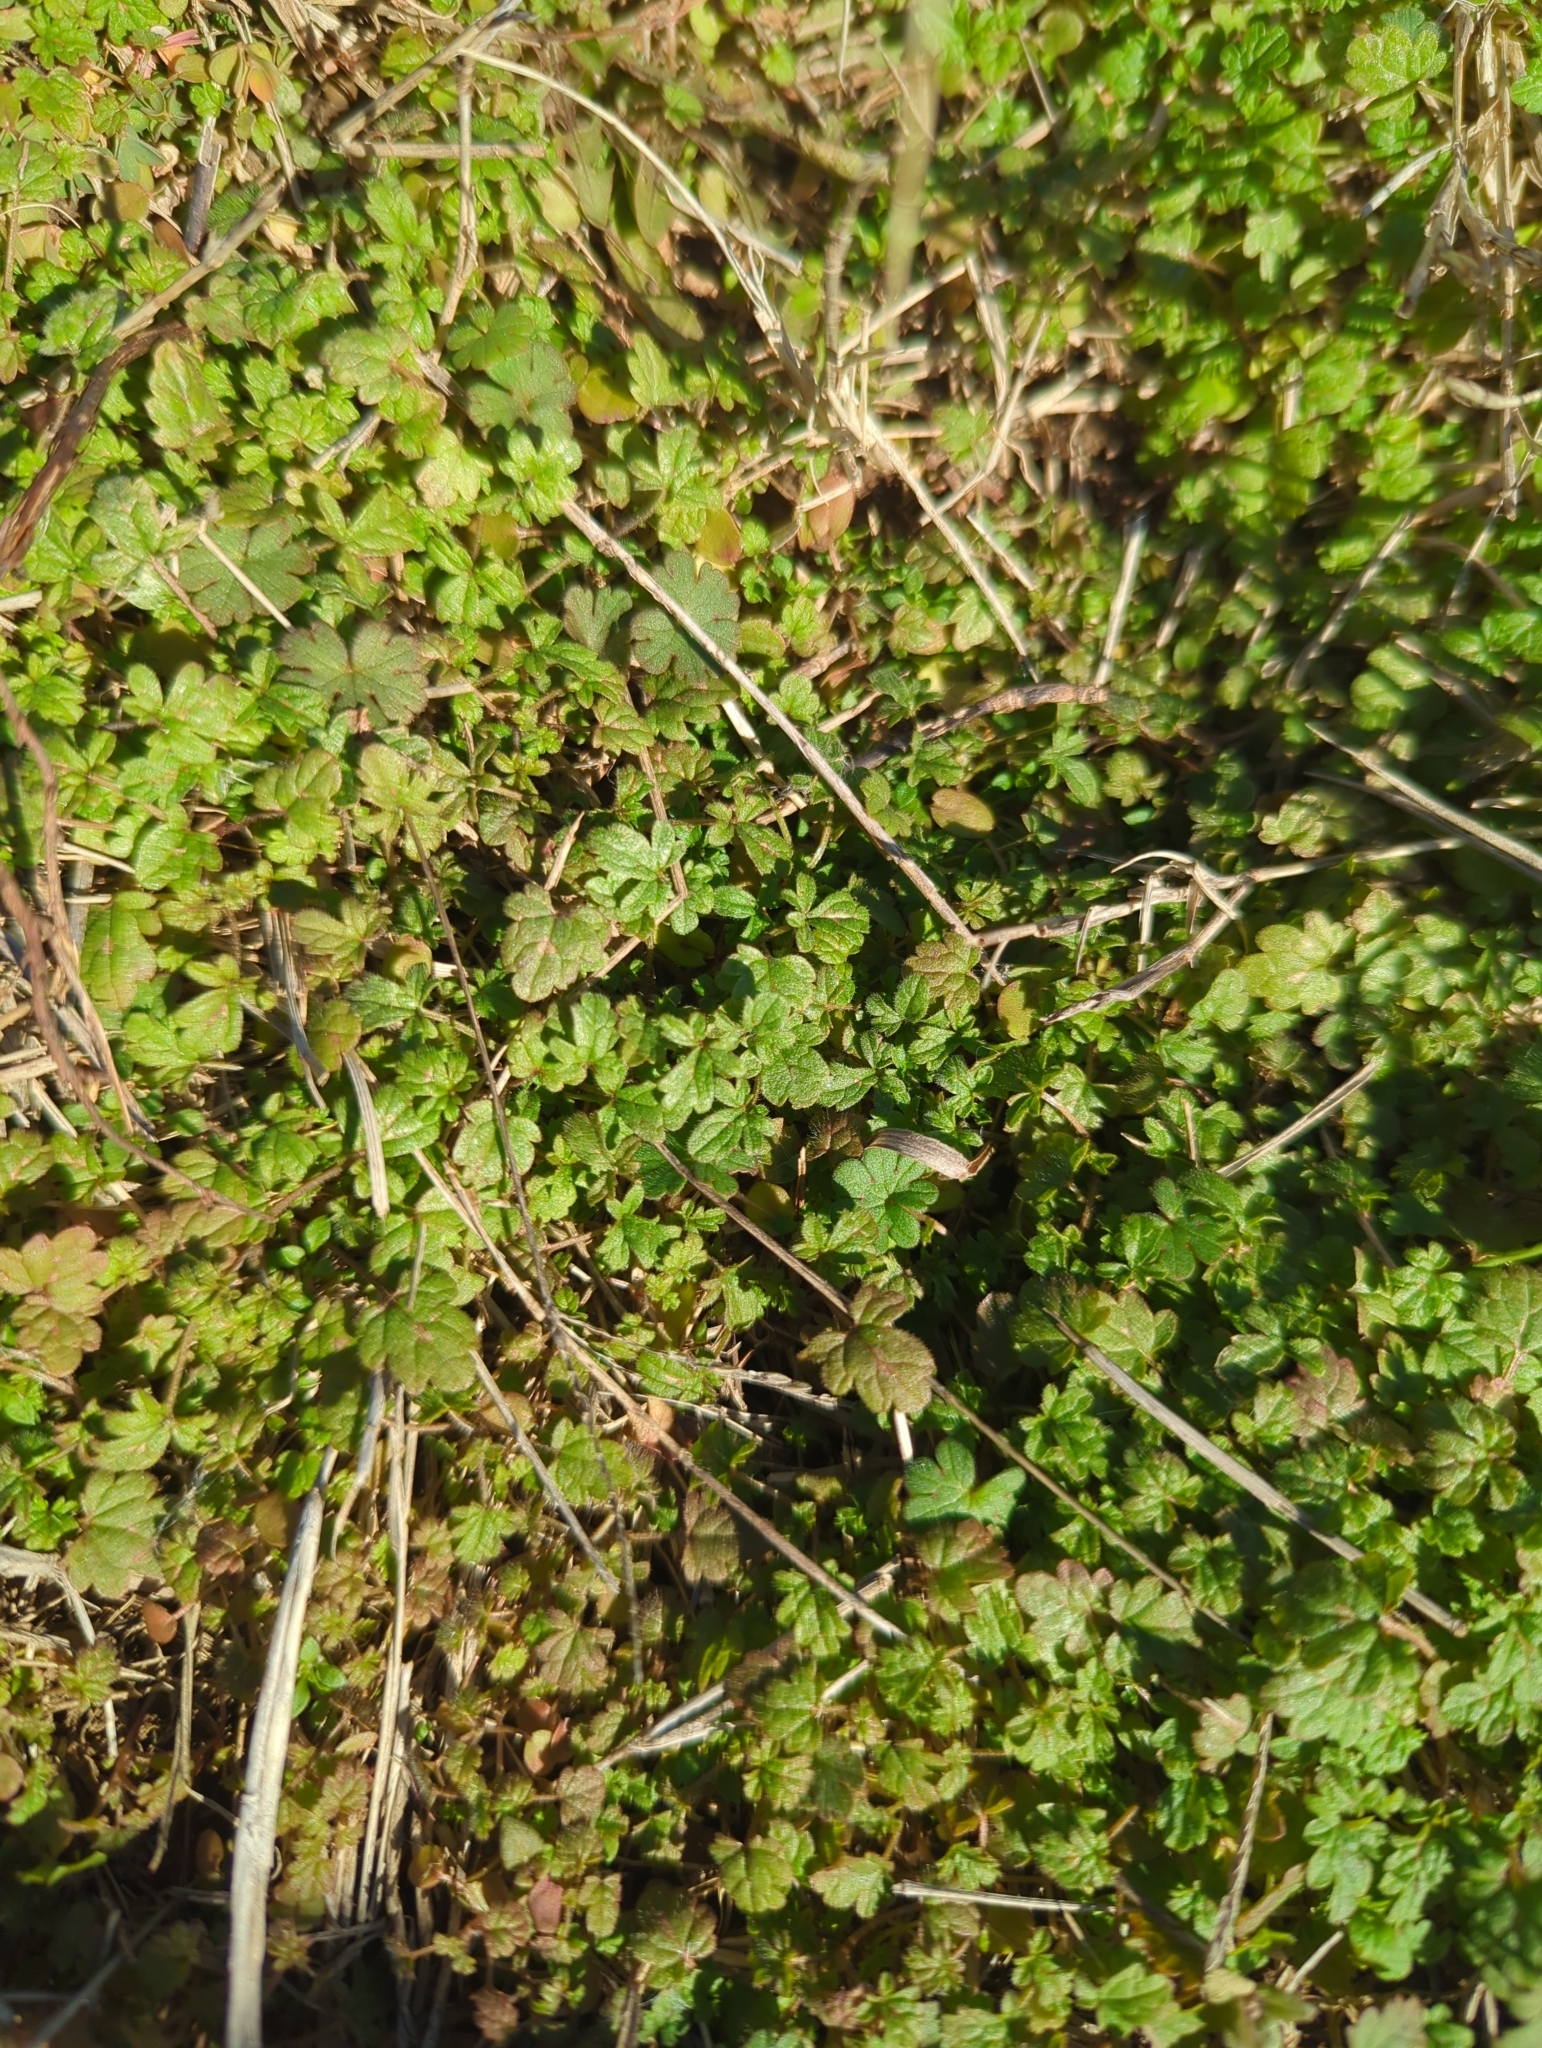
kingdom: Plantae
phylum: Tracheophyta
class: Magnoliopsida
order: Lamiales
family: Lamiaceae
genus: Lamium
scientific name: Lamium amplexicaule
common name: Henbit dead-nettle
